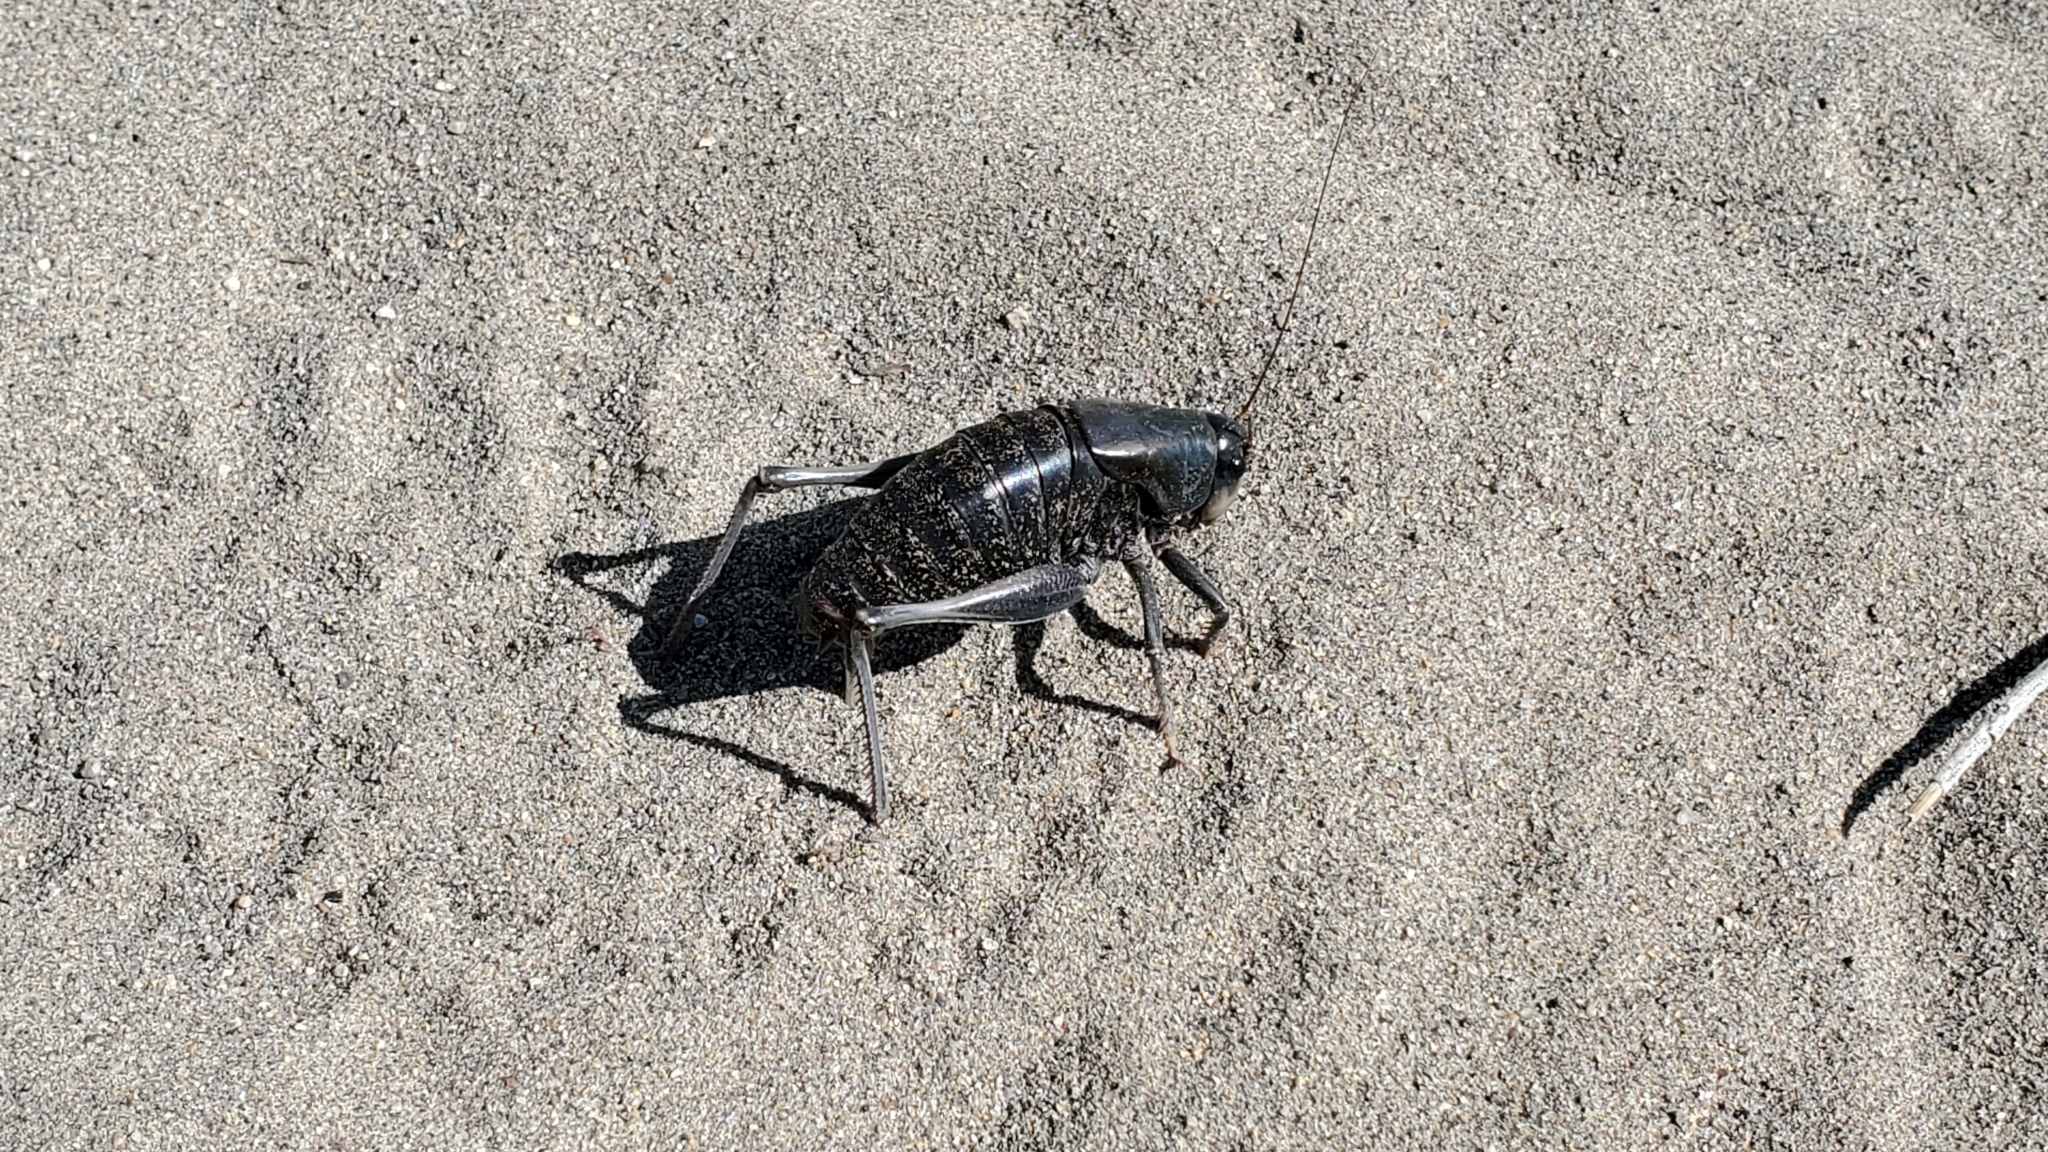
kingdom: Animalia
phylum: Arthropoda
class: Insecta
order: Orthoptera
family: Tettigoniidae
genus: Anabrus
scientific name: Anabrus simplex
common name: Mormon cricket
